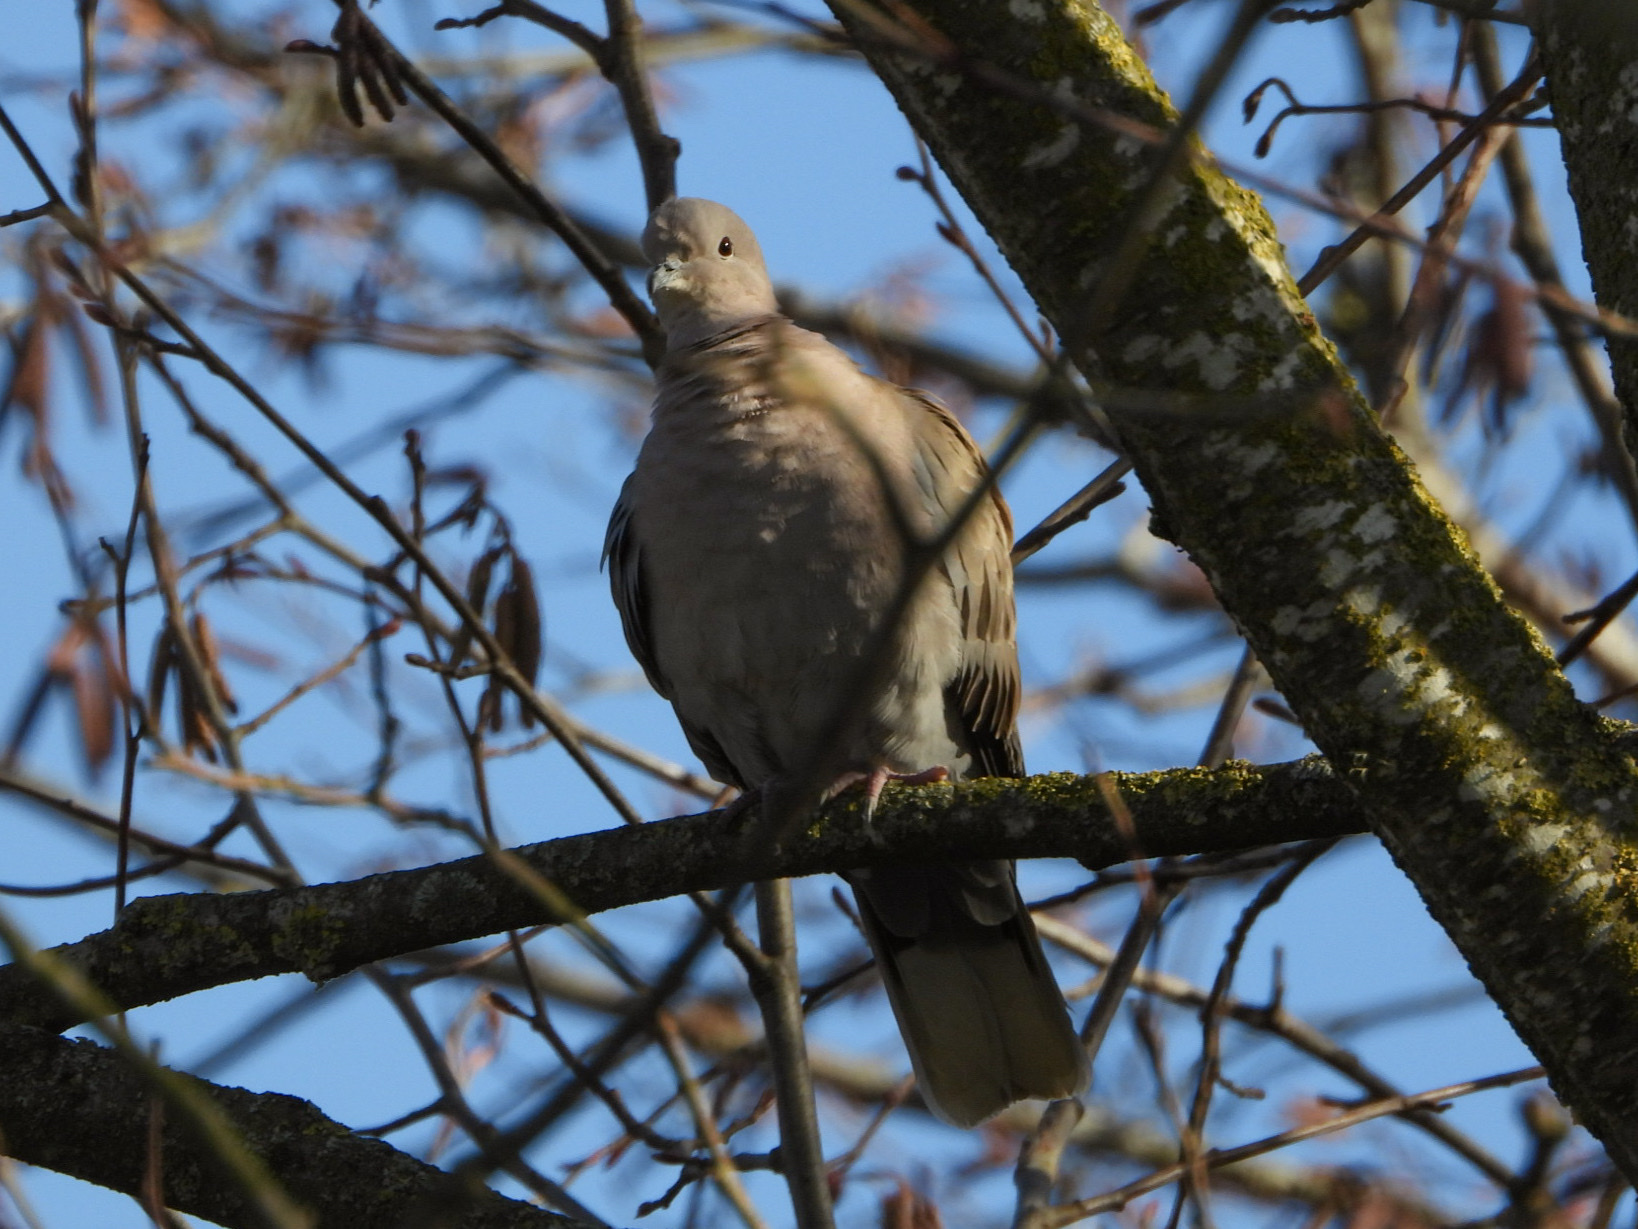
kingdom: Animalia
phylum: Chordata
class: Aves
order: Columbiformes
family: Columbidae
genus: Streptopelia
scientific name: Streptopelia decaocto
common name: Eurasian collared dove
